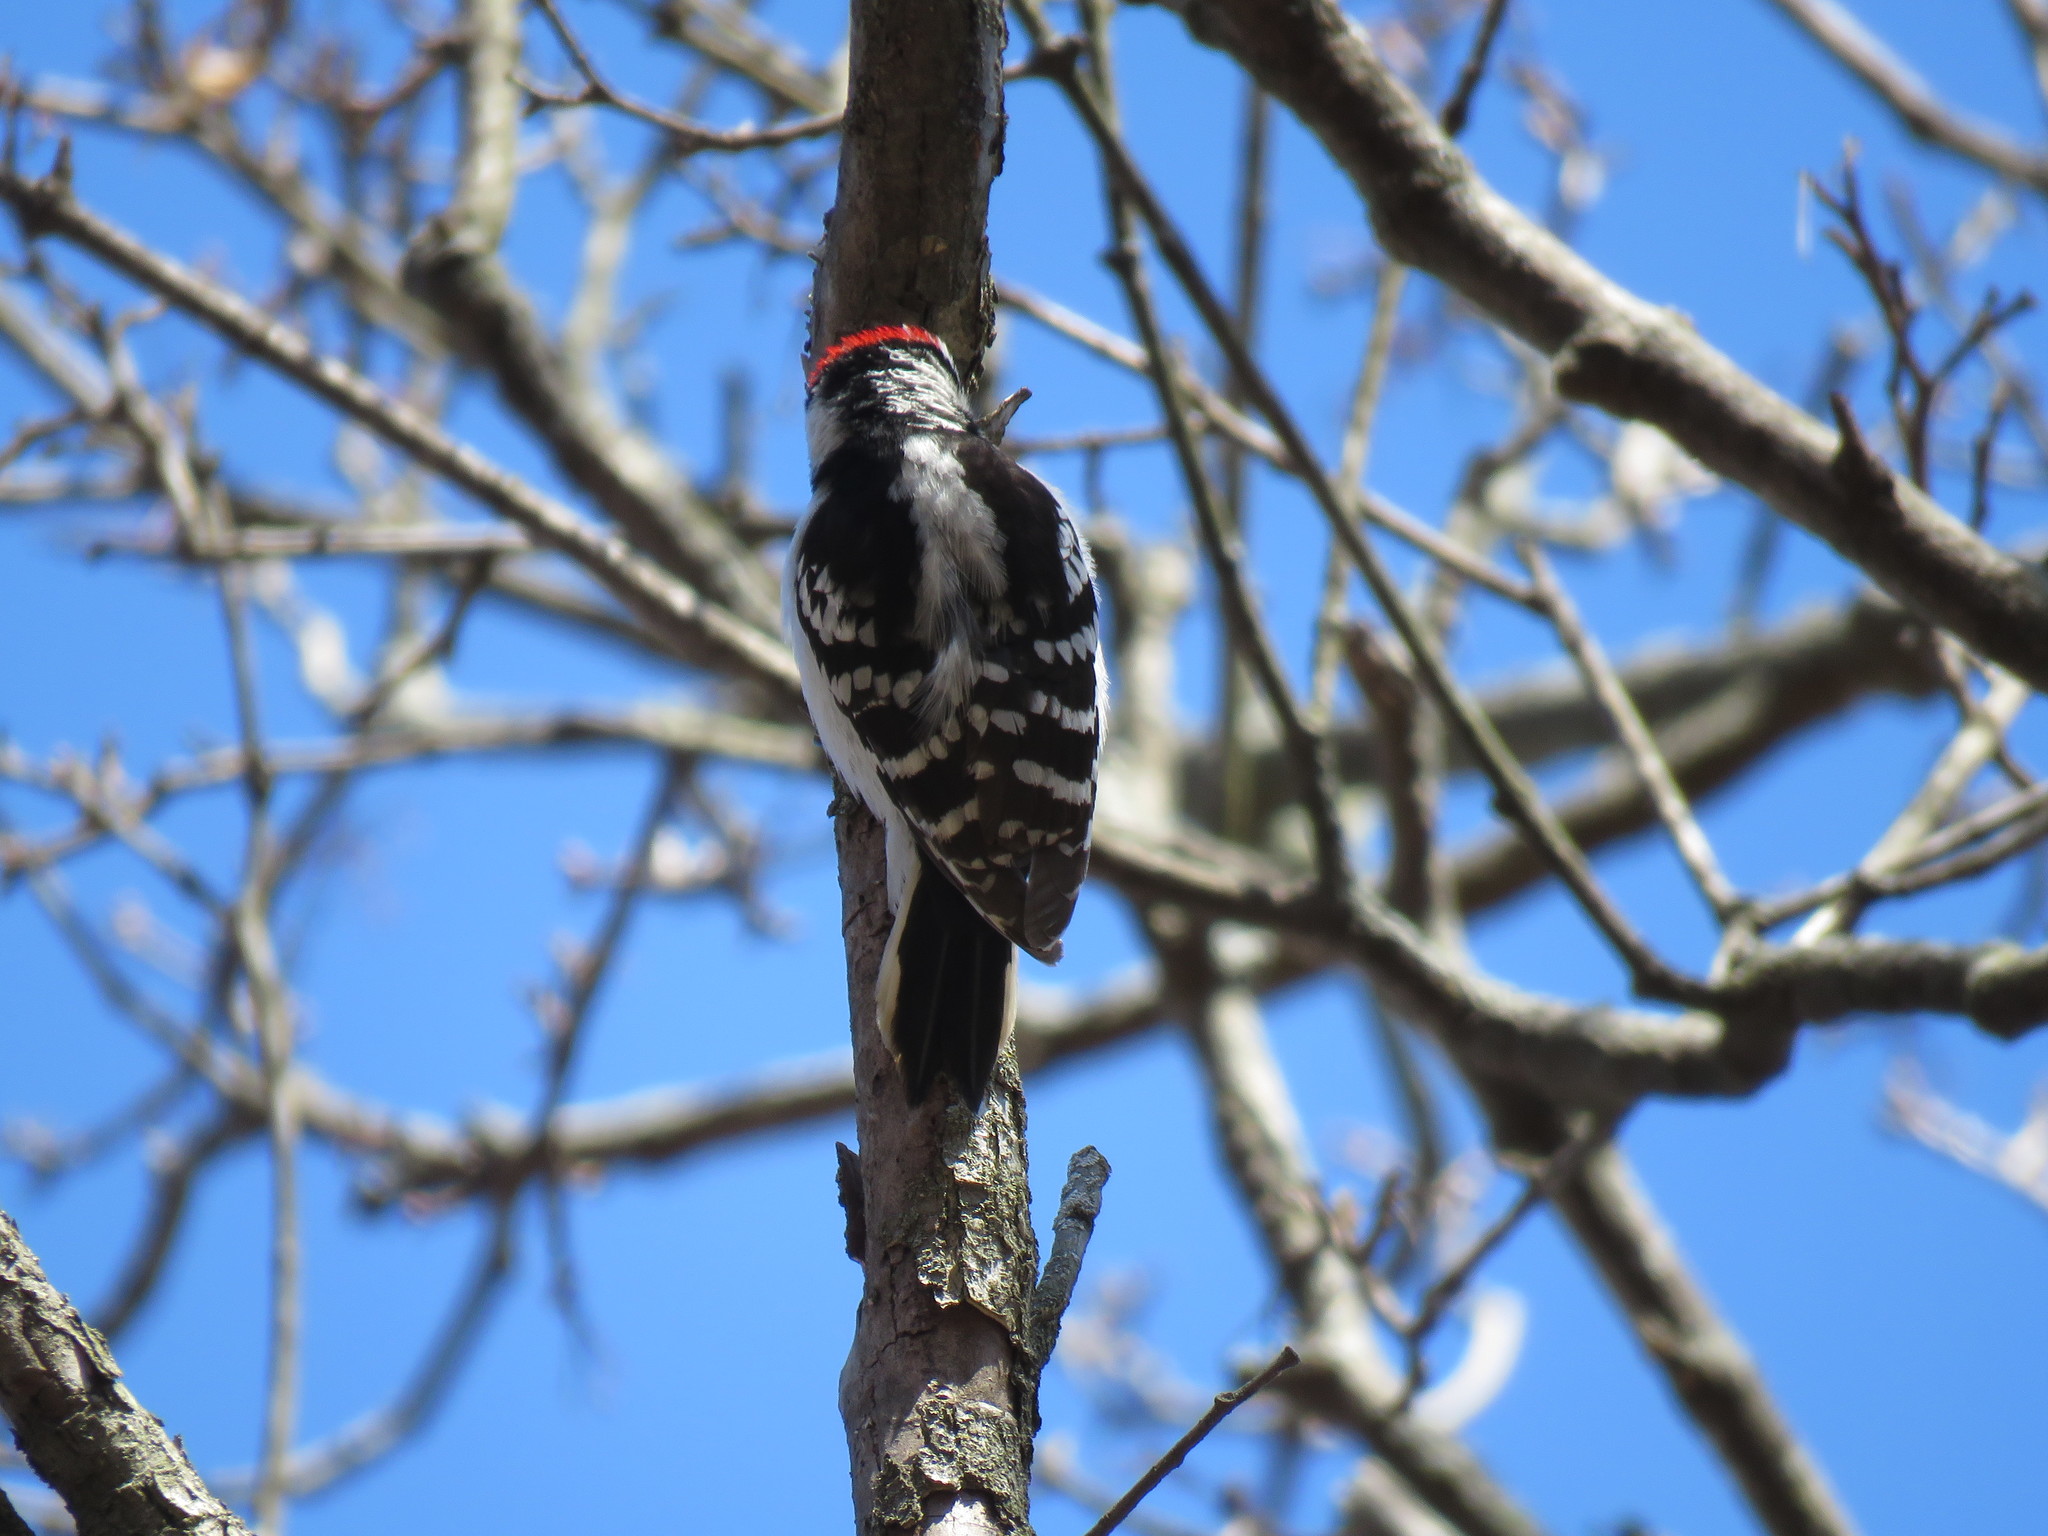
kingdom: Animalia
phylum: Chordata
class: Aves
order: Piciformes
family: Picidae
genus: Dryobates
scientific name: Dryobates pubescens
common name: Downy woodpecker
